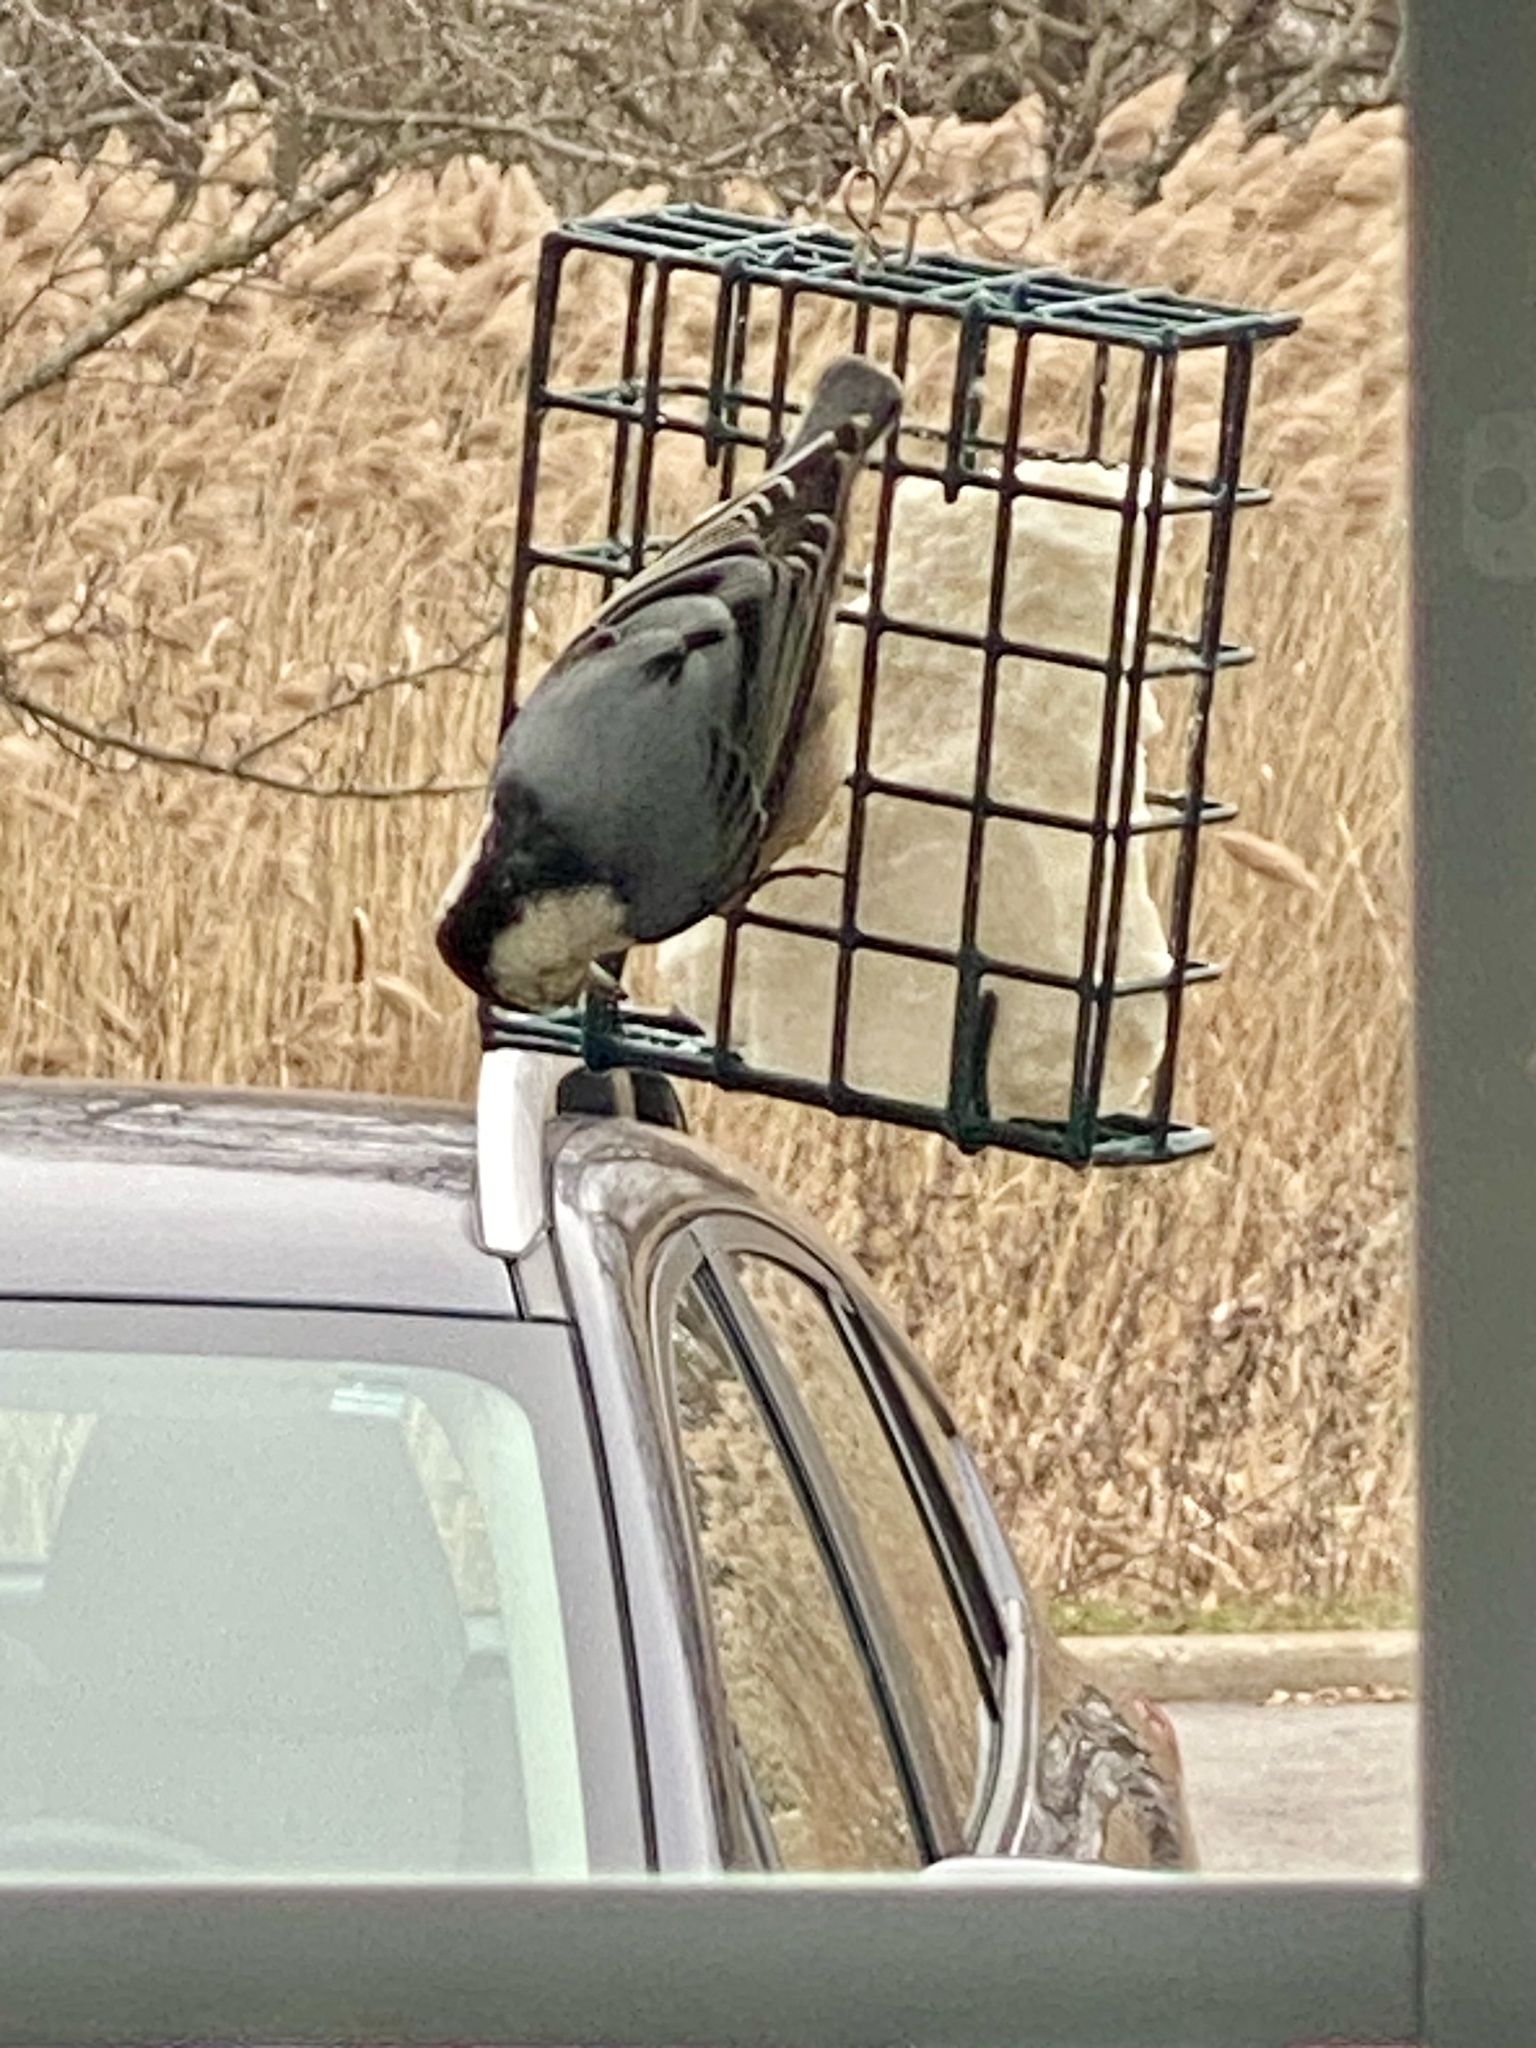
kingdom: Animalia
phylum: Chordata
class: Aves
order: Passeriformes
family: Sittidae
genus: Sitta
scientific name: Sitta carolinensis
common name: White-breasted nuthatch
